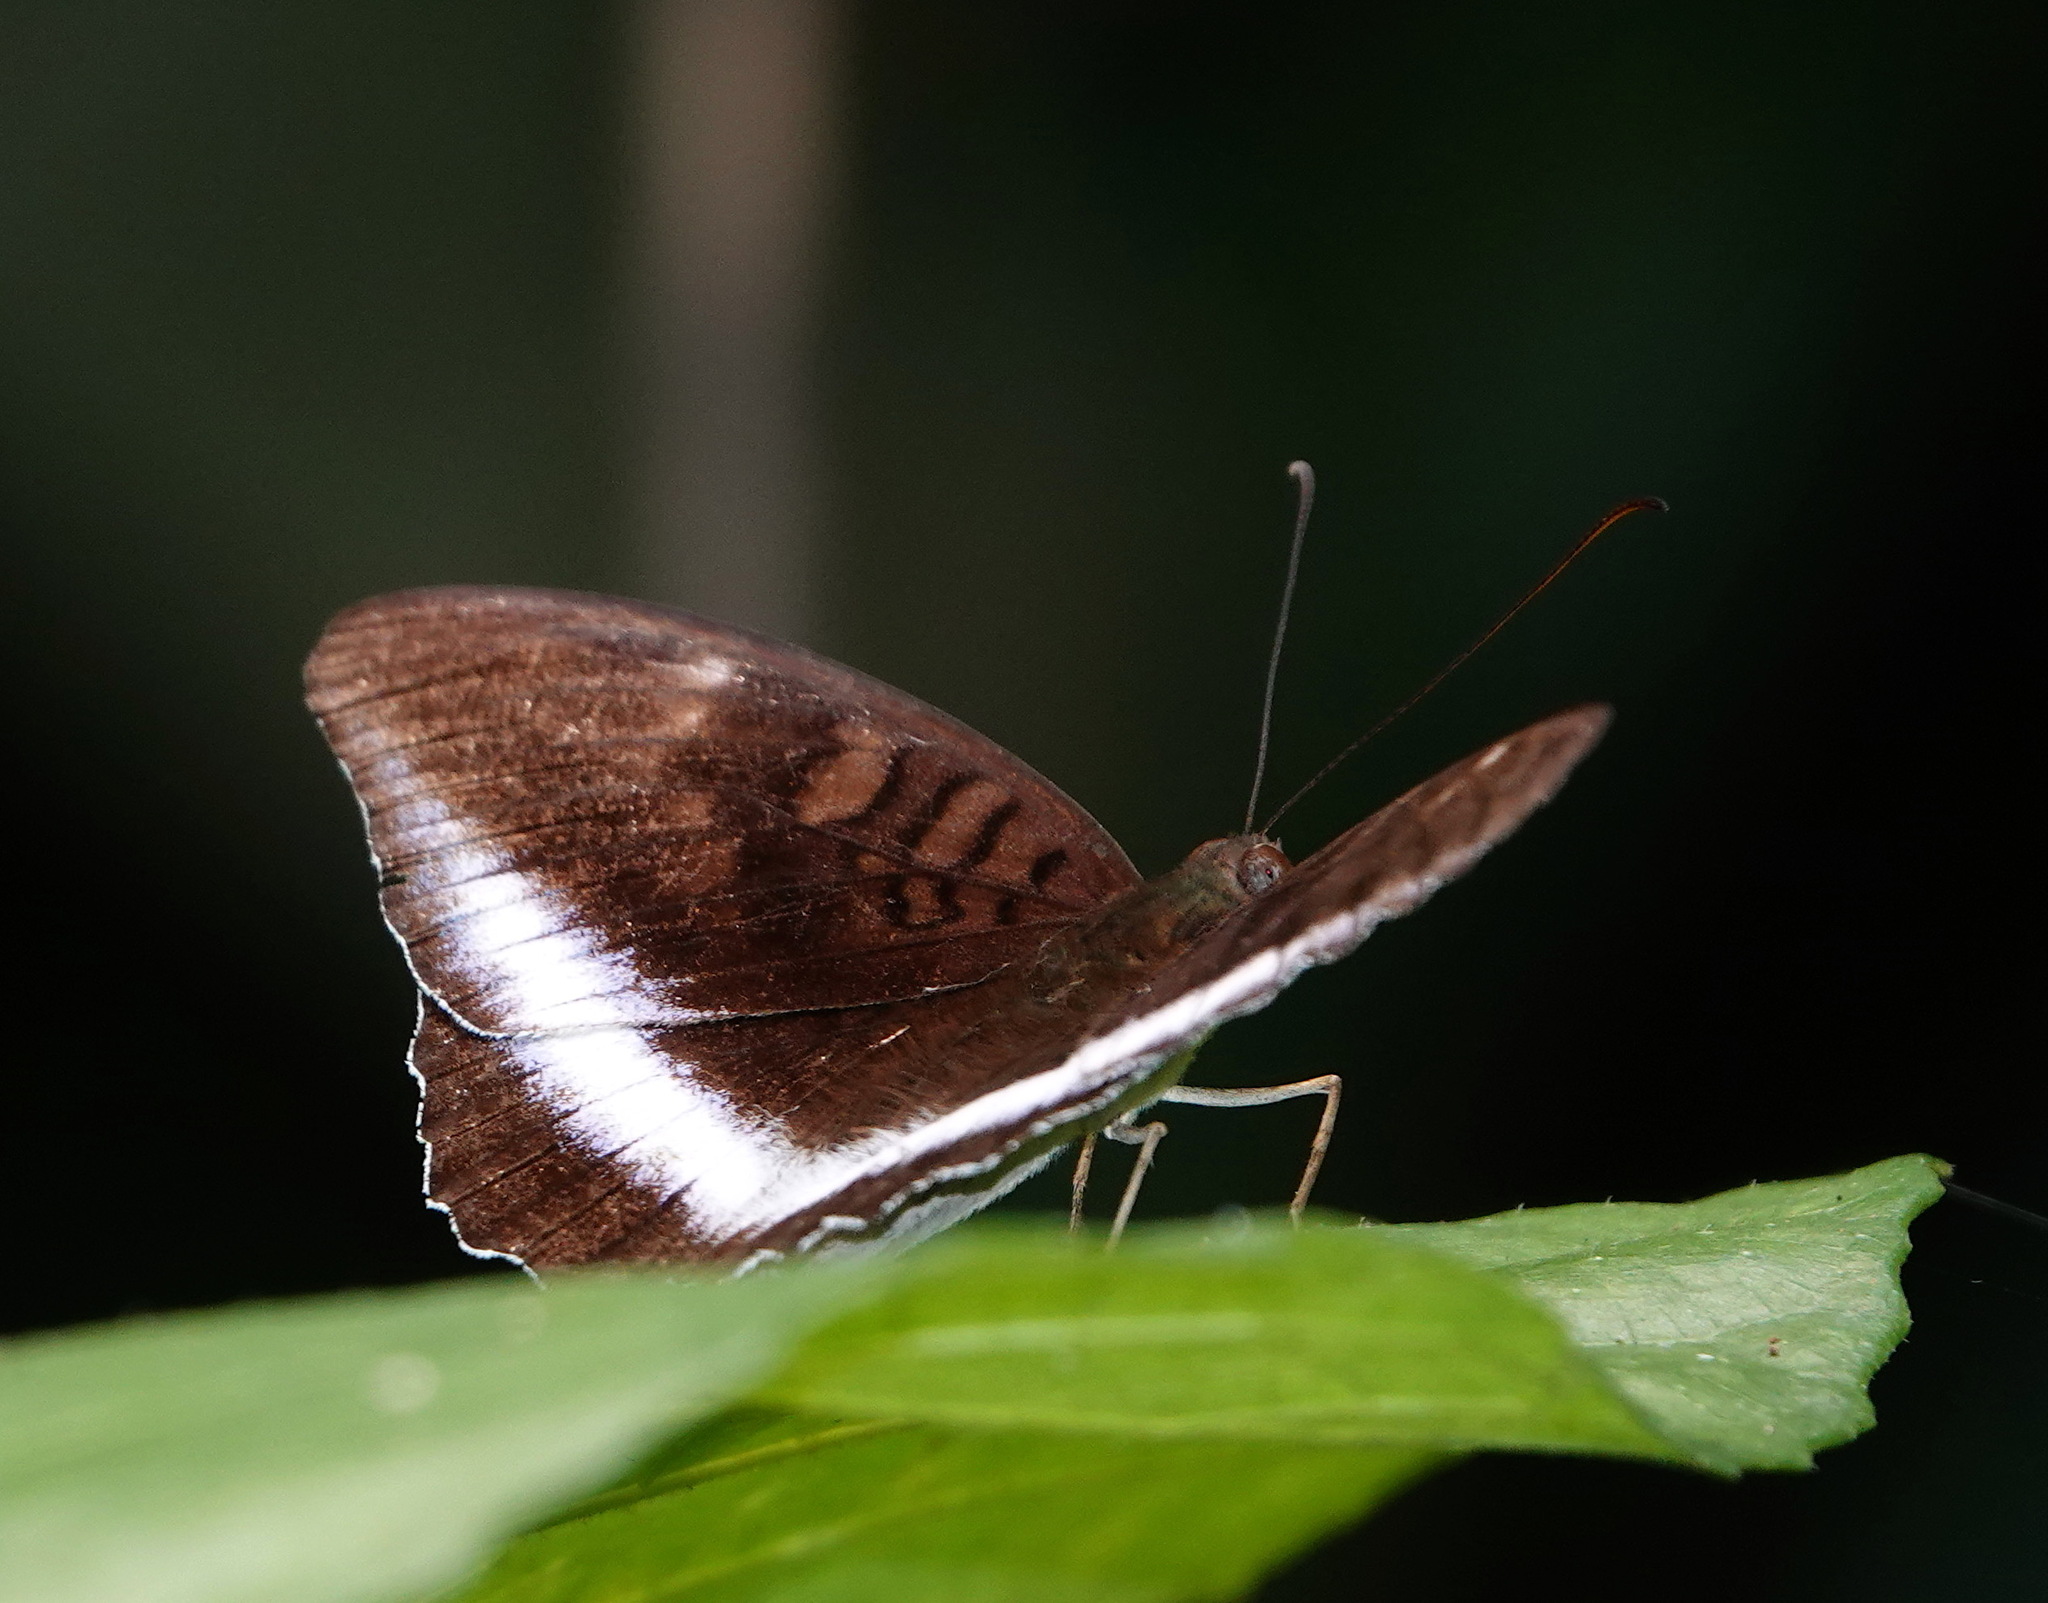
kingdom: Animalia
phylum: Arthropoda
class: Insecta
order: Lepidoptera
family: Nymphalidae
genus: Tanaecia
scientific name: Tanaecia iapis
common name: Horsfield's baron
